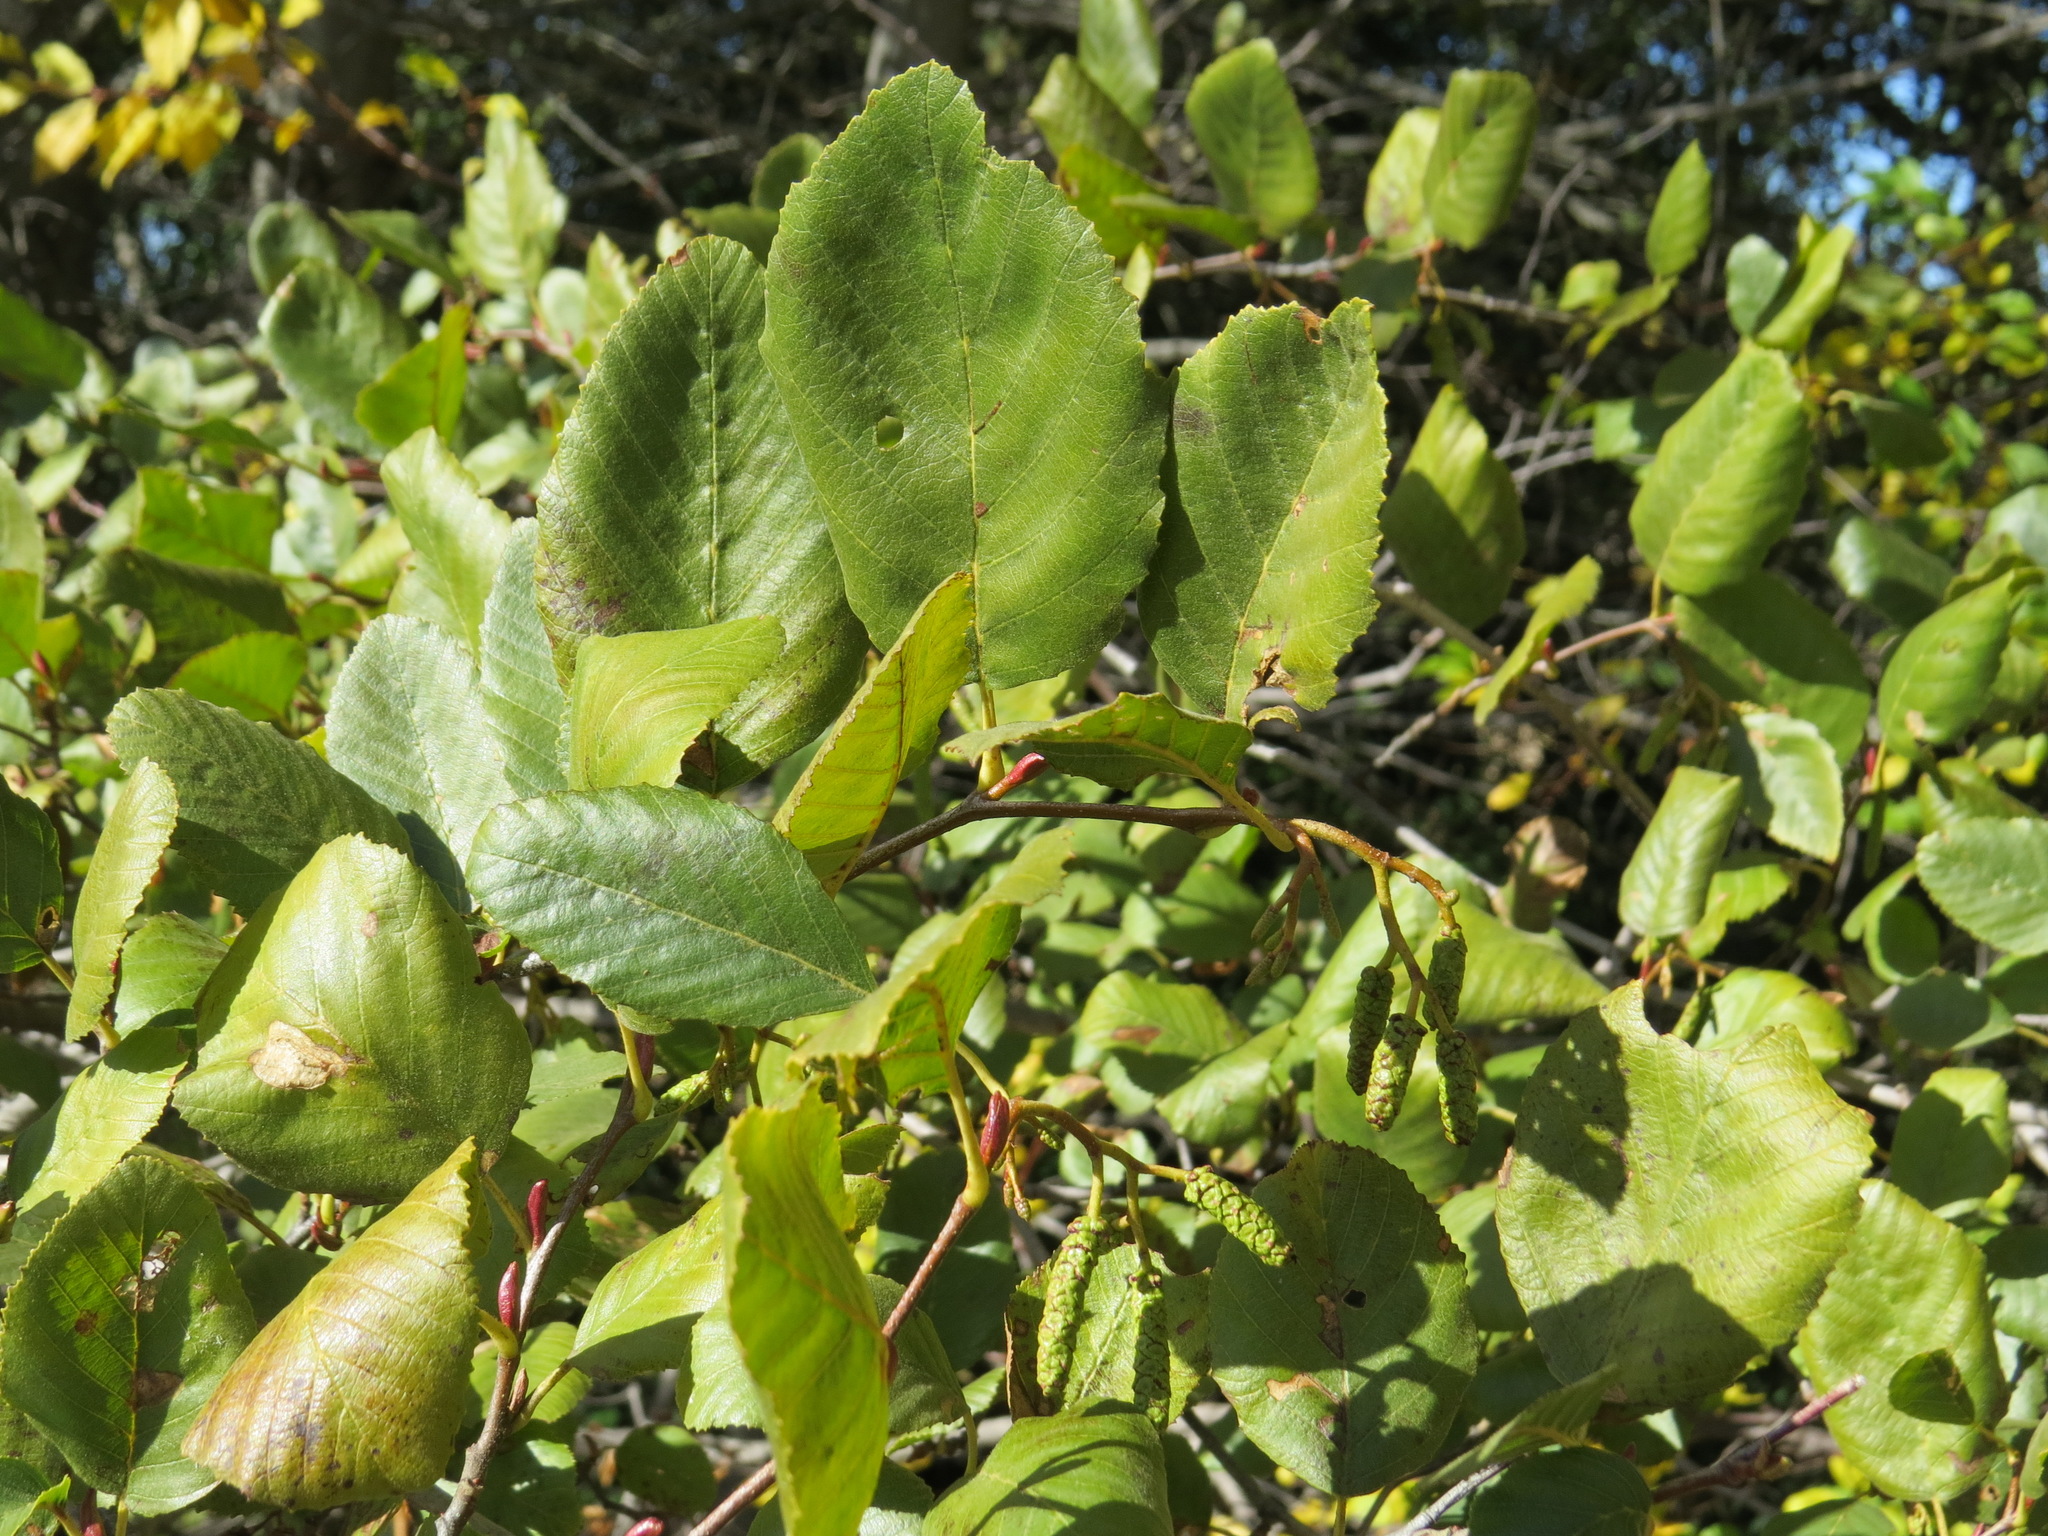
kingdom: Fungi
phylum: Ascomycota
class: Taphrinomycetes
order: Taphrinales
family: Taphrinaceae
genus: Taphrina
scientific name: Taphrina occidentalis
